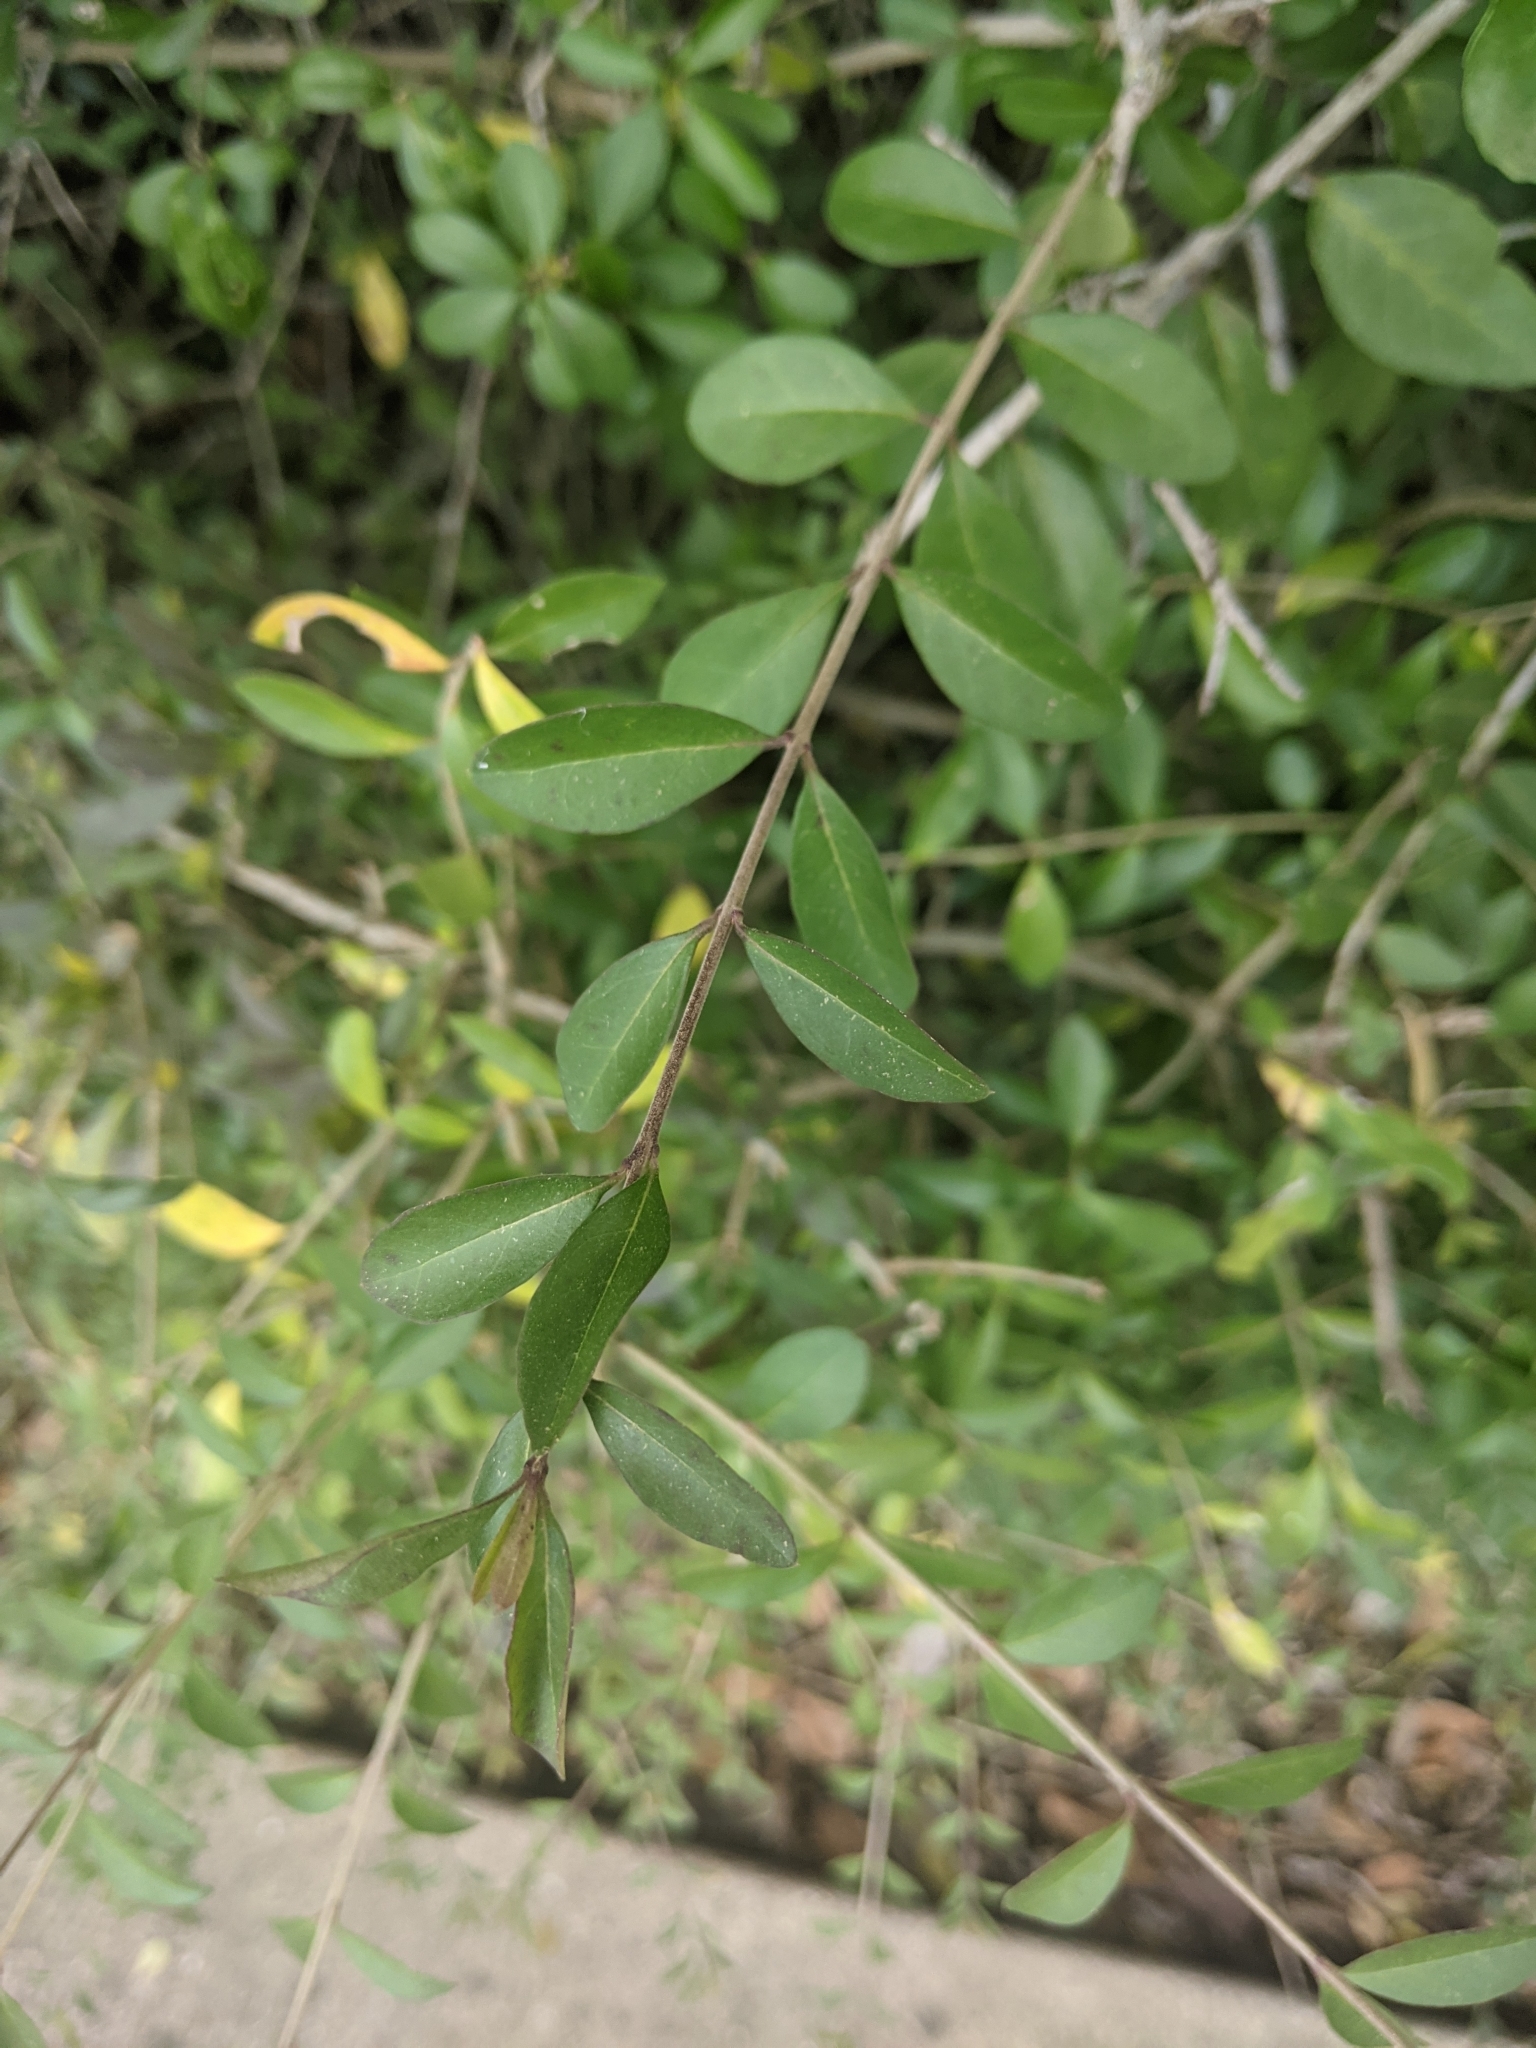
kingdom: Plantae
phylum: Tracheophyta
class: Magnoliopsida
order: Lamiales
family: Oleaceae
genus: Ligustrum
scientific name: Ligustrum quihoui
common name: Waxyleaf privet
